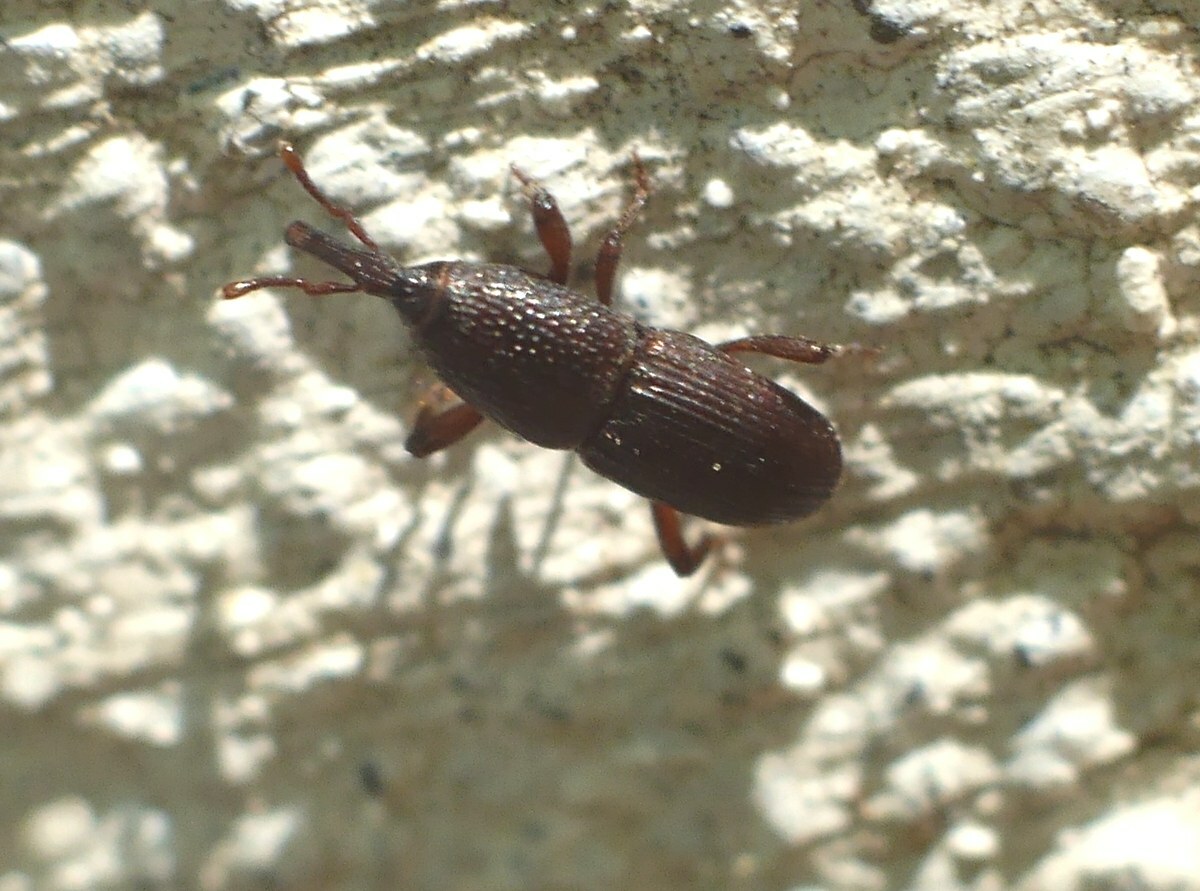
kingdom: Animalia
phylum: Arthropoda
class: Insecta
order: Coleoptera
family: Dryophthoridae
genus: Sitophilus
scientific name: Sitophilus granarius
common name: Granary weevil
